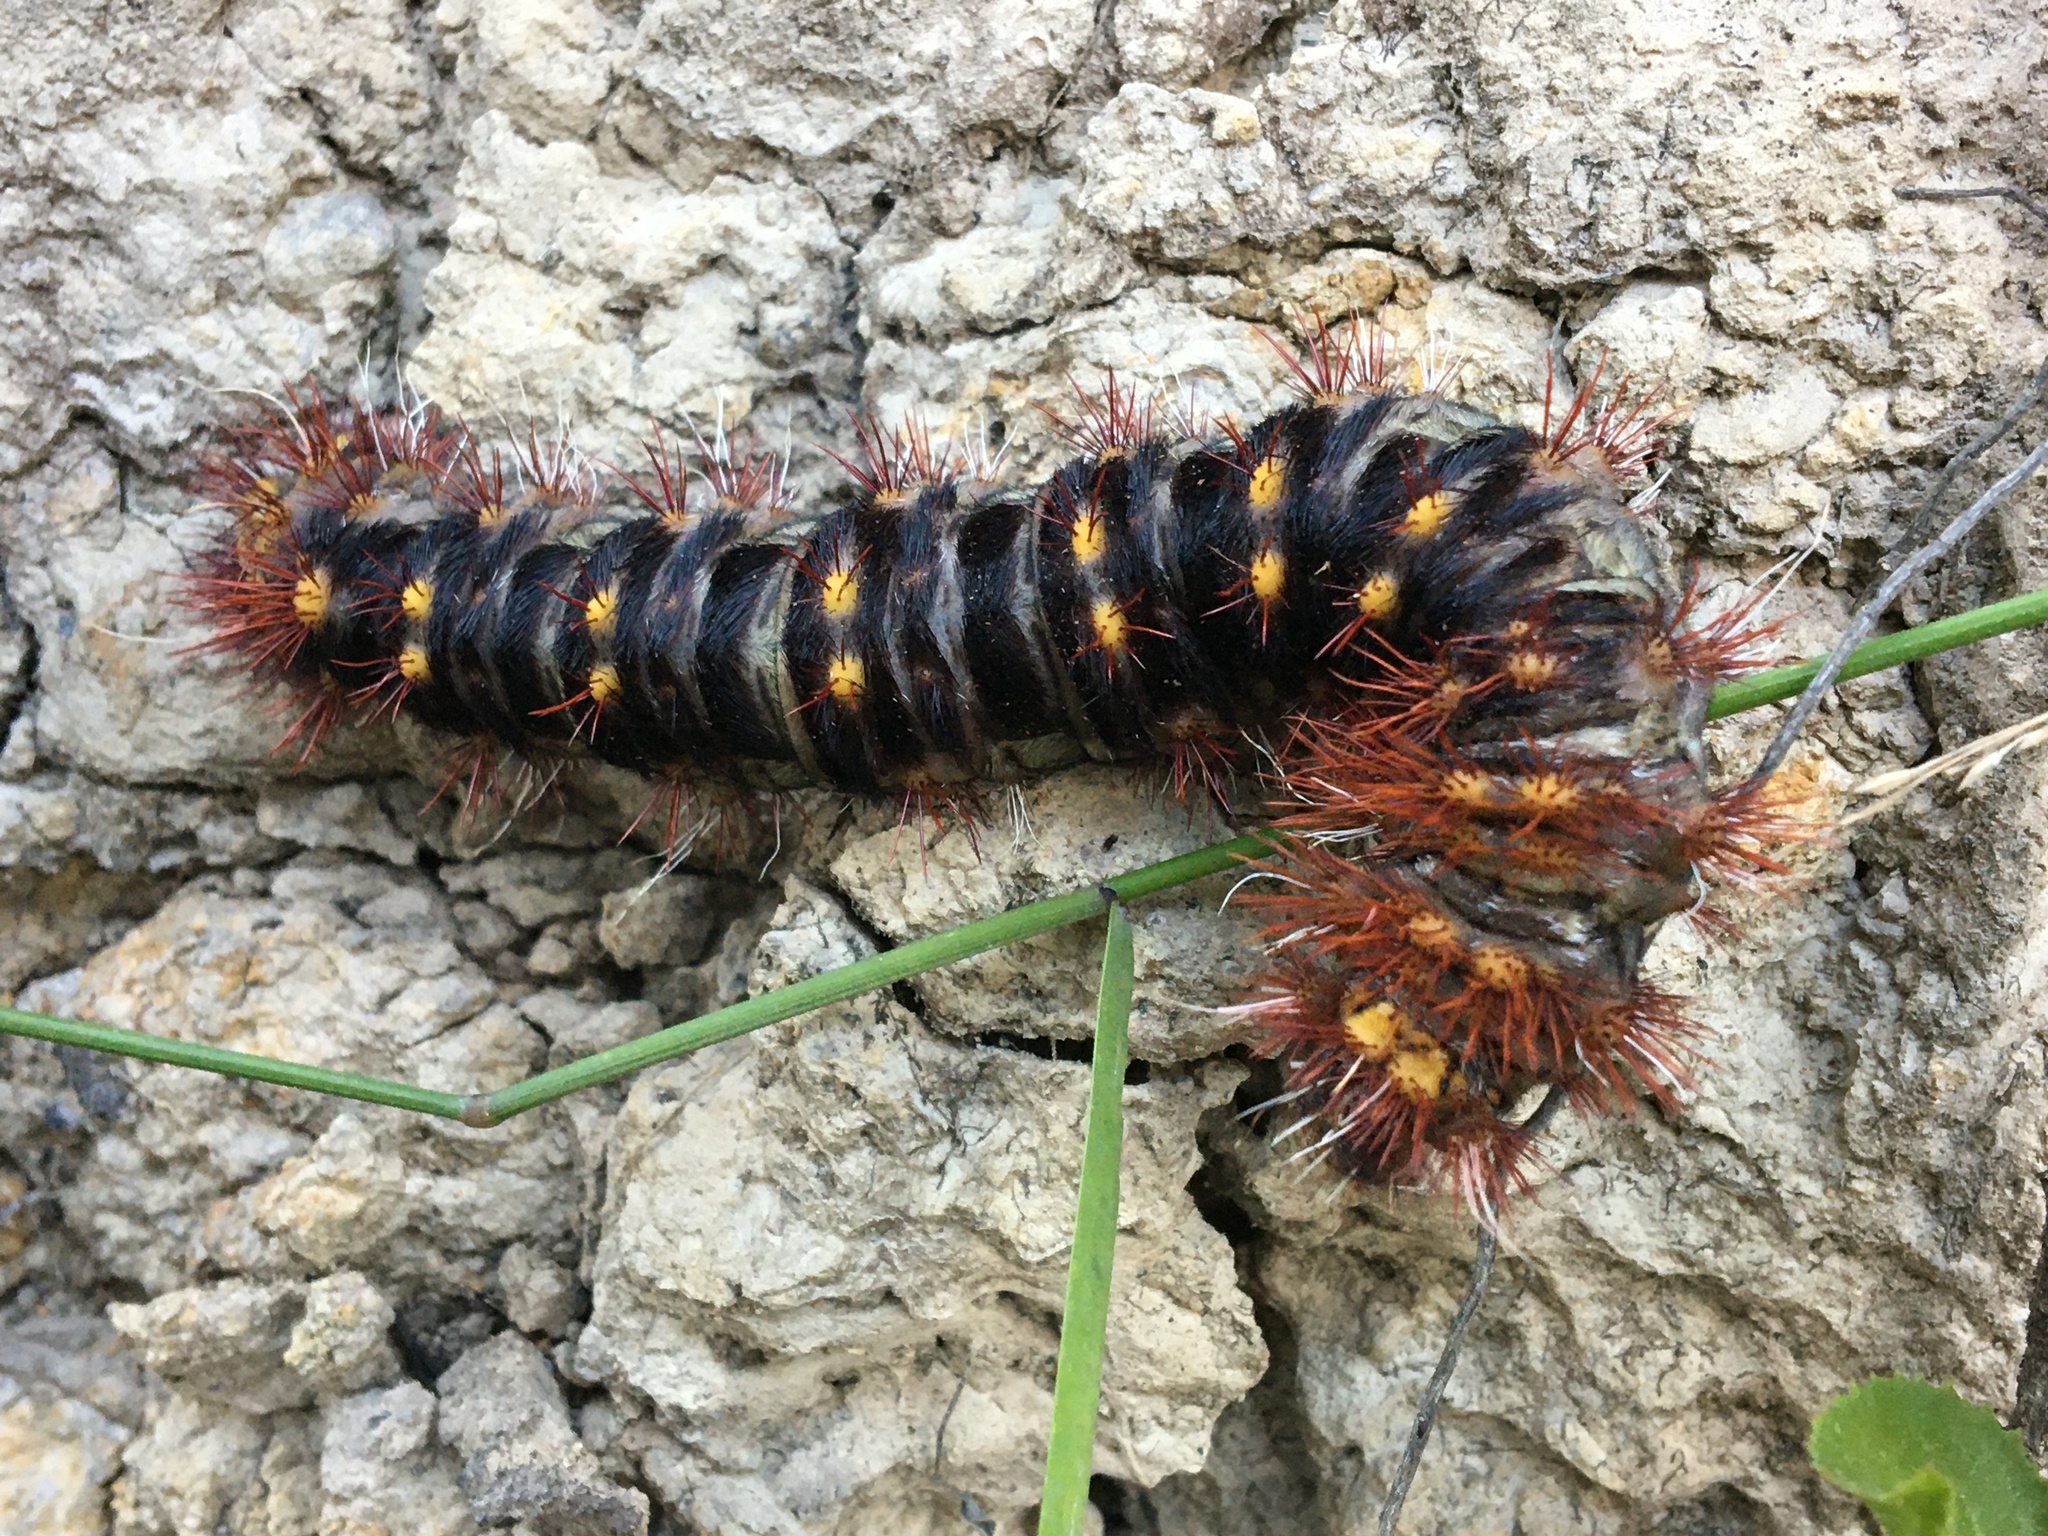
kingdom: Animalia
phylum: Arthropoda
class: Insecta
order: Lepidoptera
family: Anthelidae
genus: Chelepteryx
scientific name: Chelepteryx collesi
